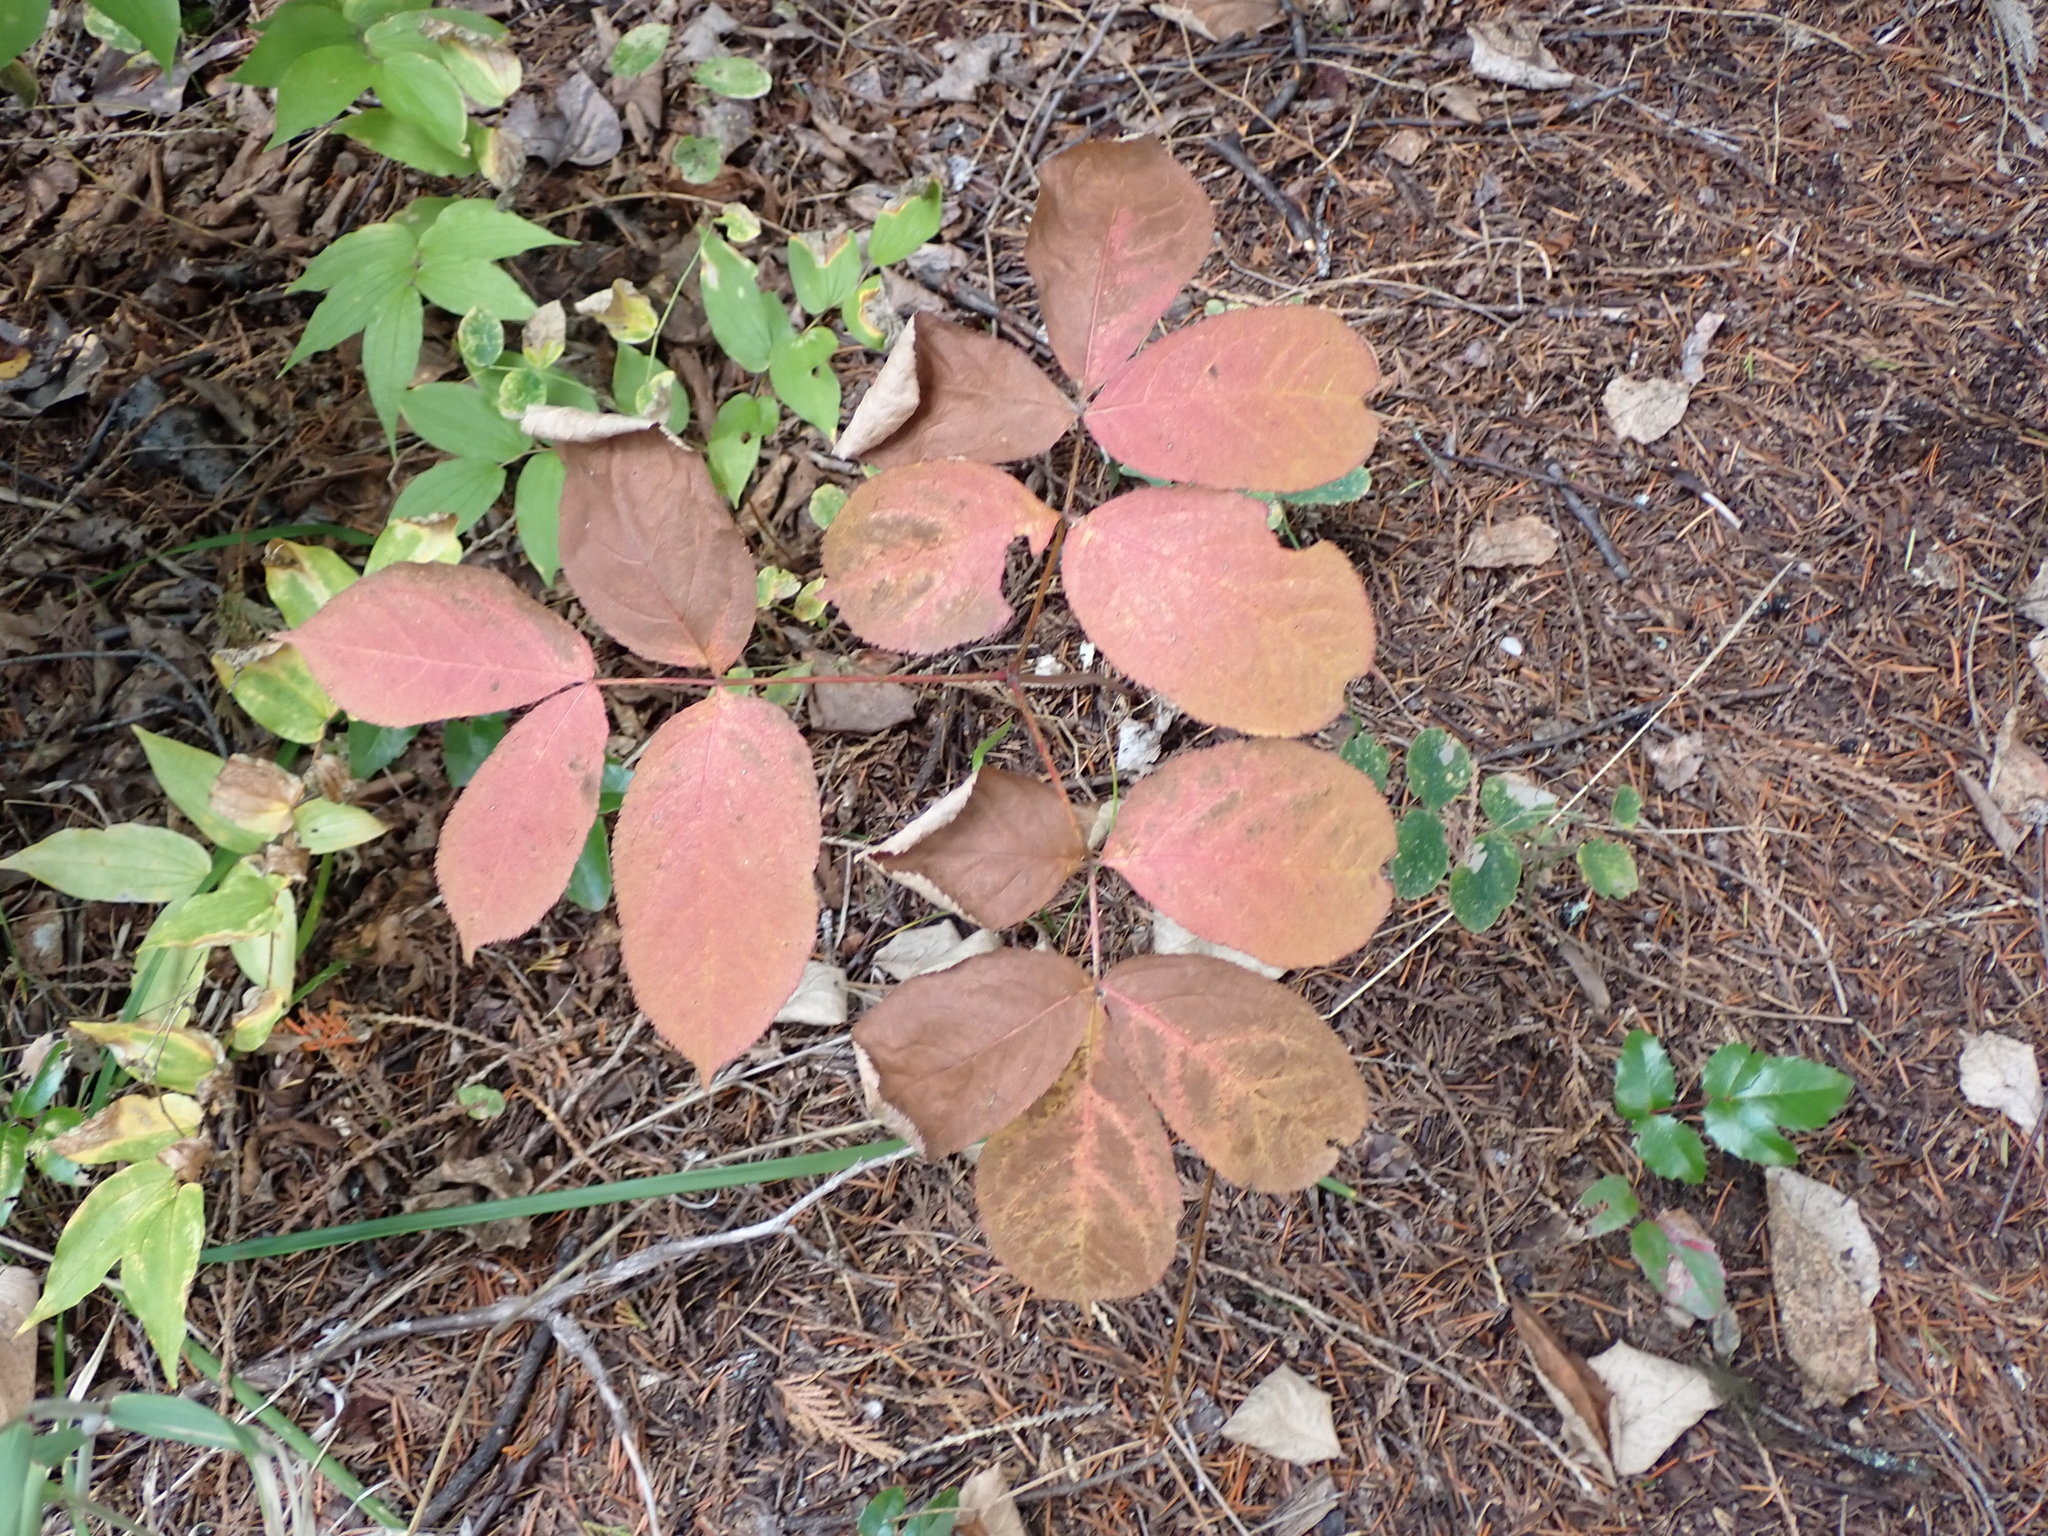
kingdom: Plantae
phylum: Tracheophyta
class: Magnoliopsida
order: Apiales
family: Araliaceae
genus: Aralia
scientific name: Aralia nudicaulis
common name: Wild sarsaparilla
